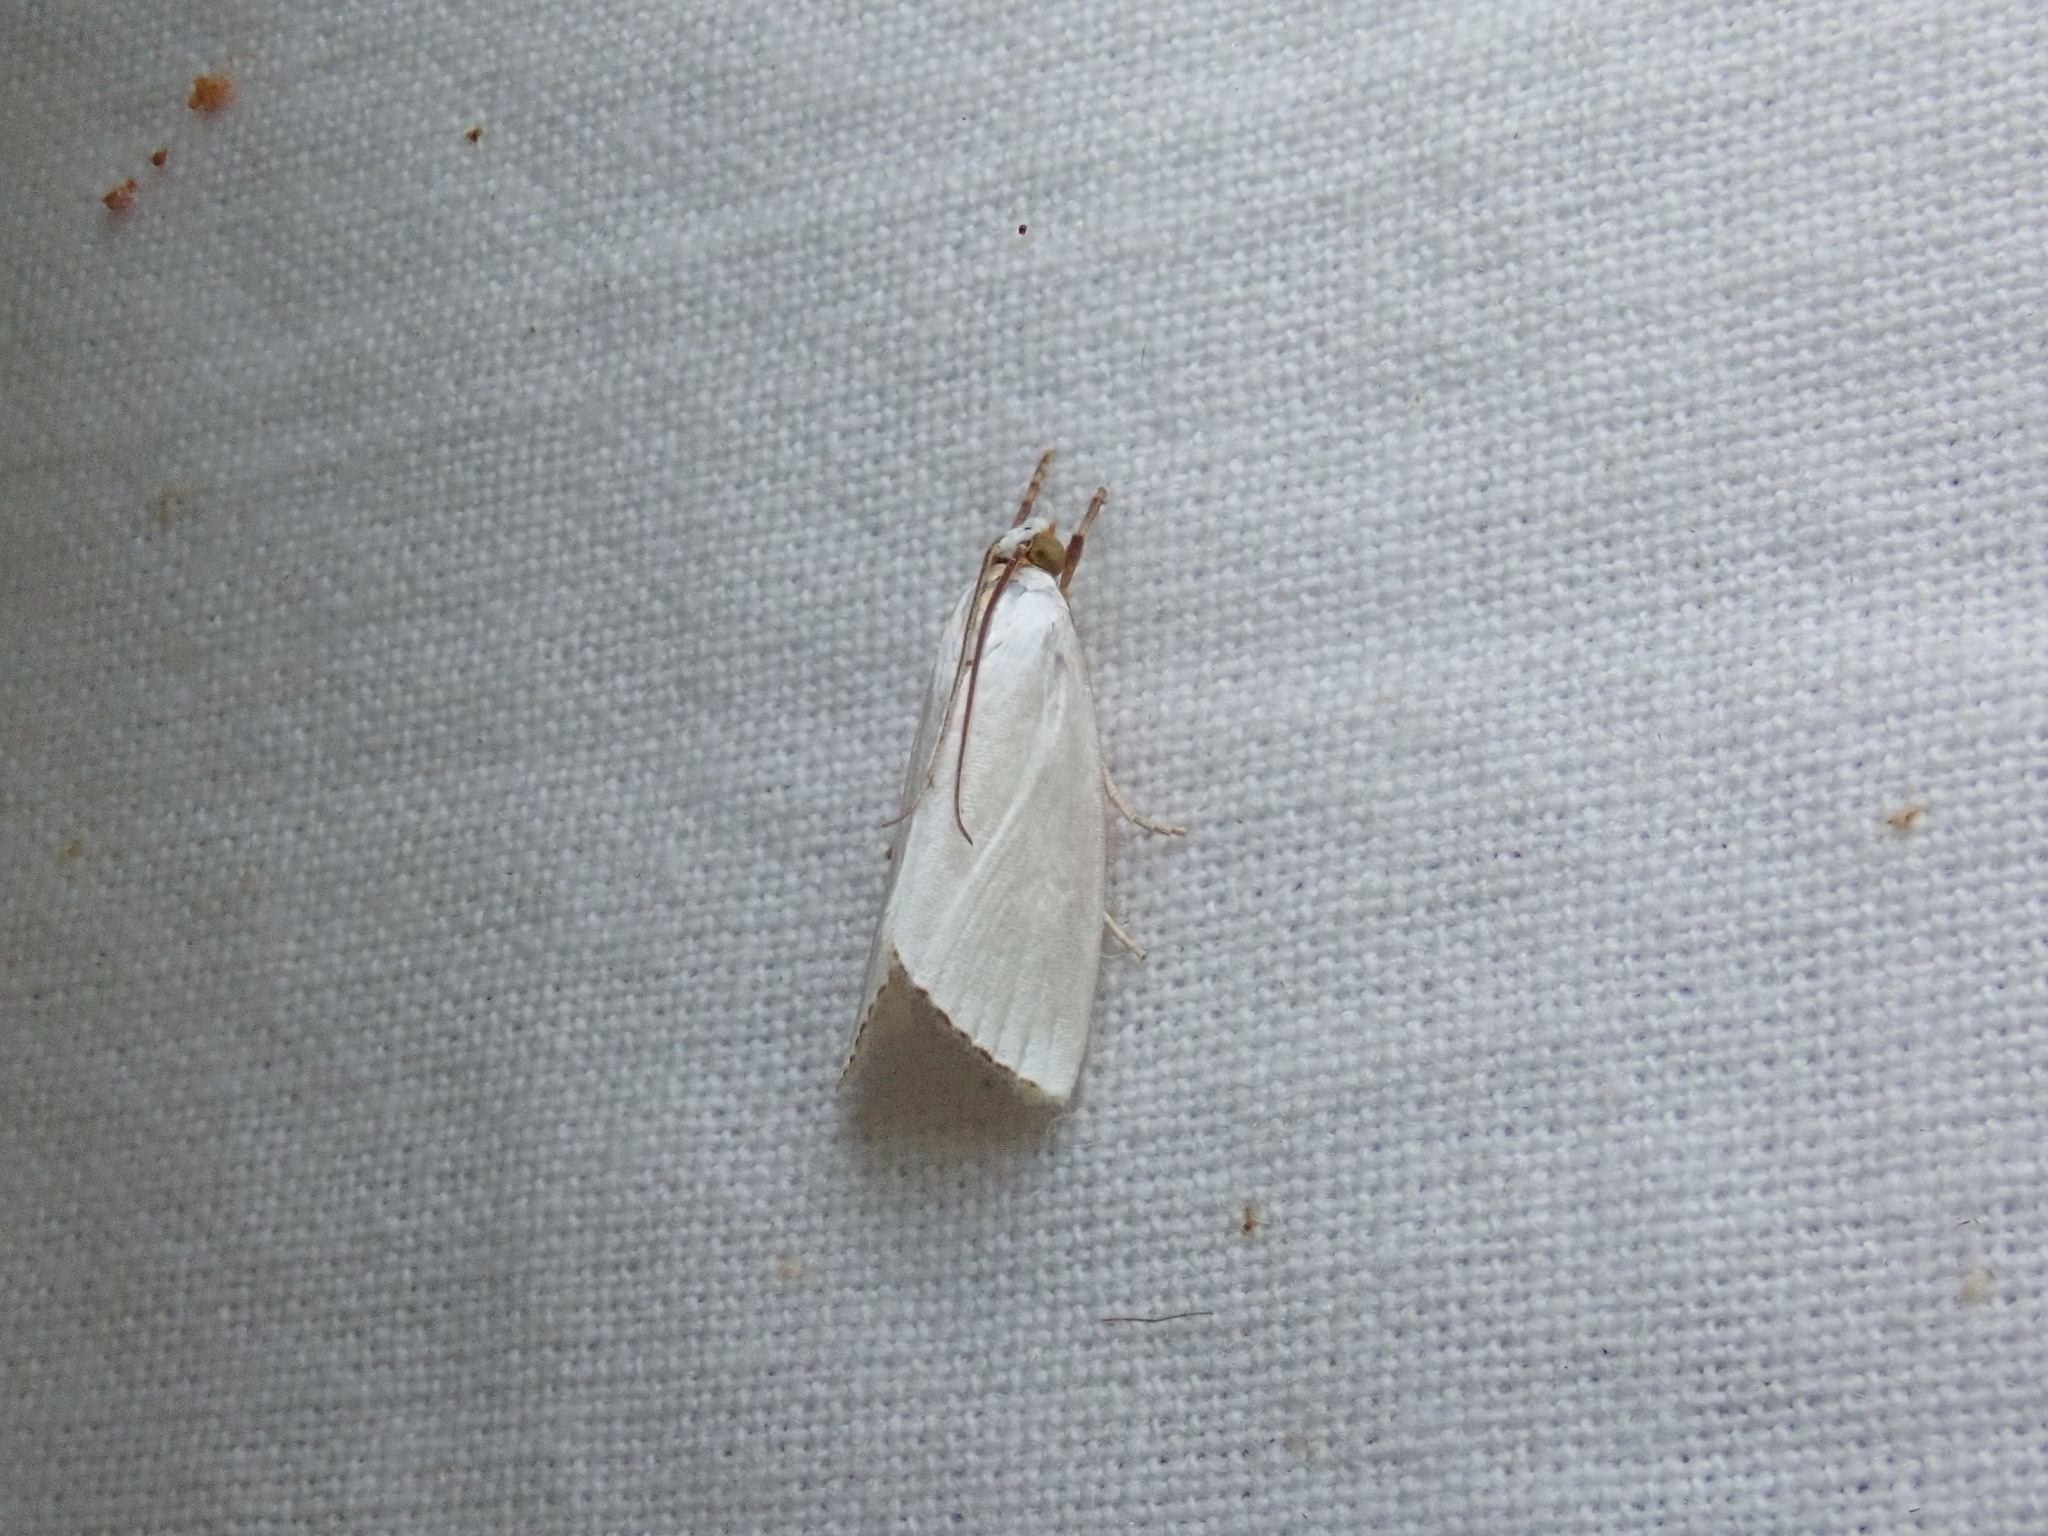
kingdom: Animalia
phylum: Arthropoda
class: Insecta
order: Lepidoptera
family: Crambidae
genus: Argyria
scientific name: Argyria nivalis
